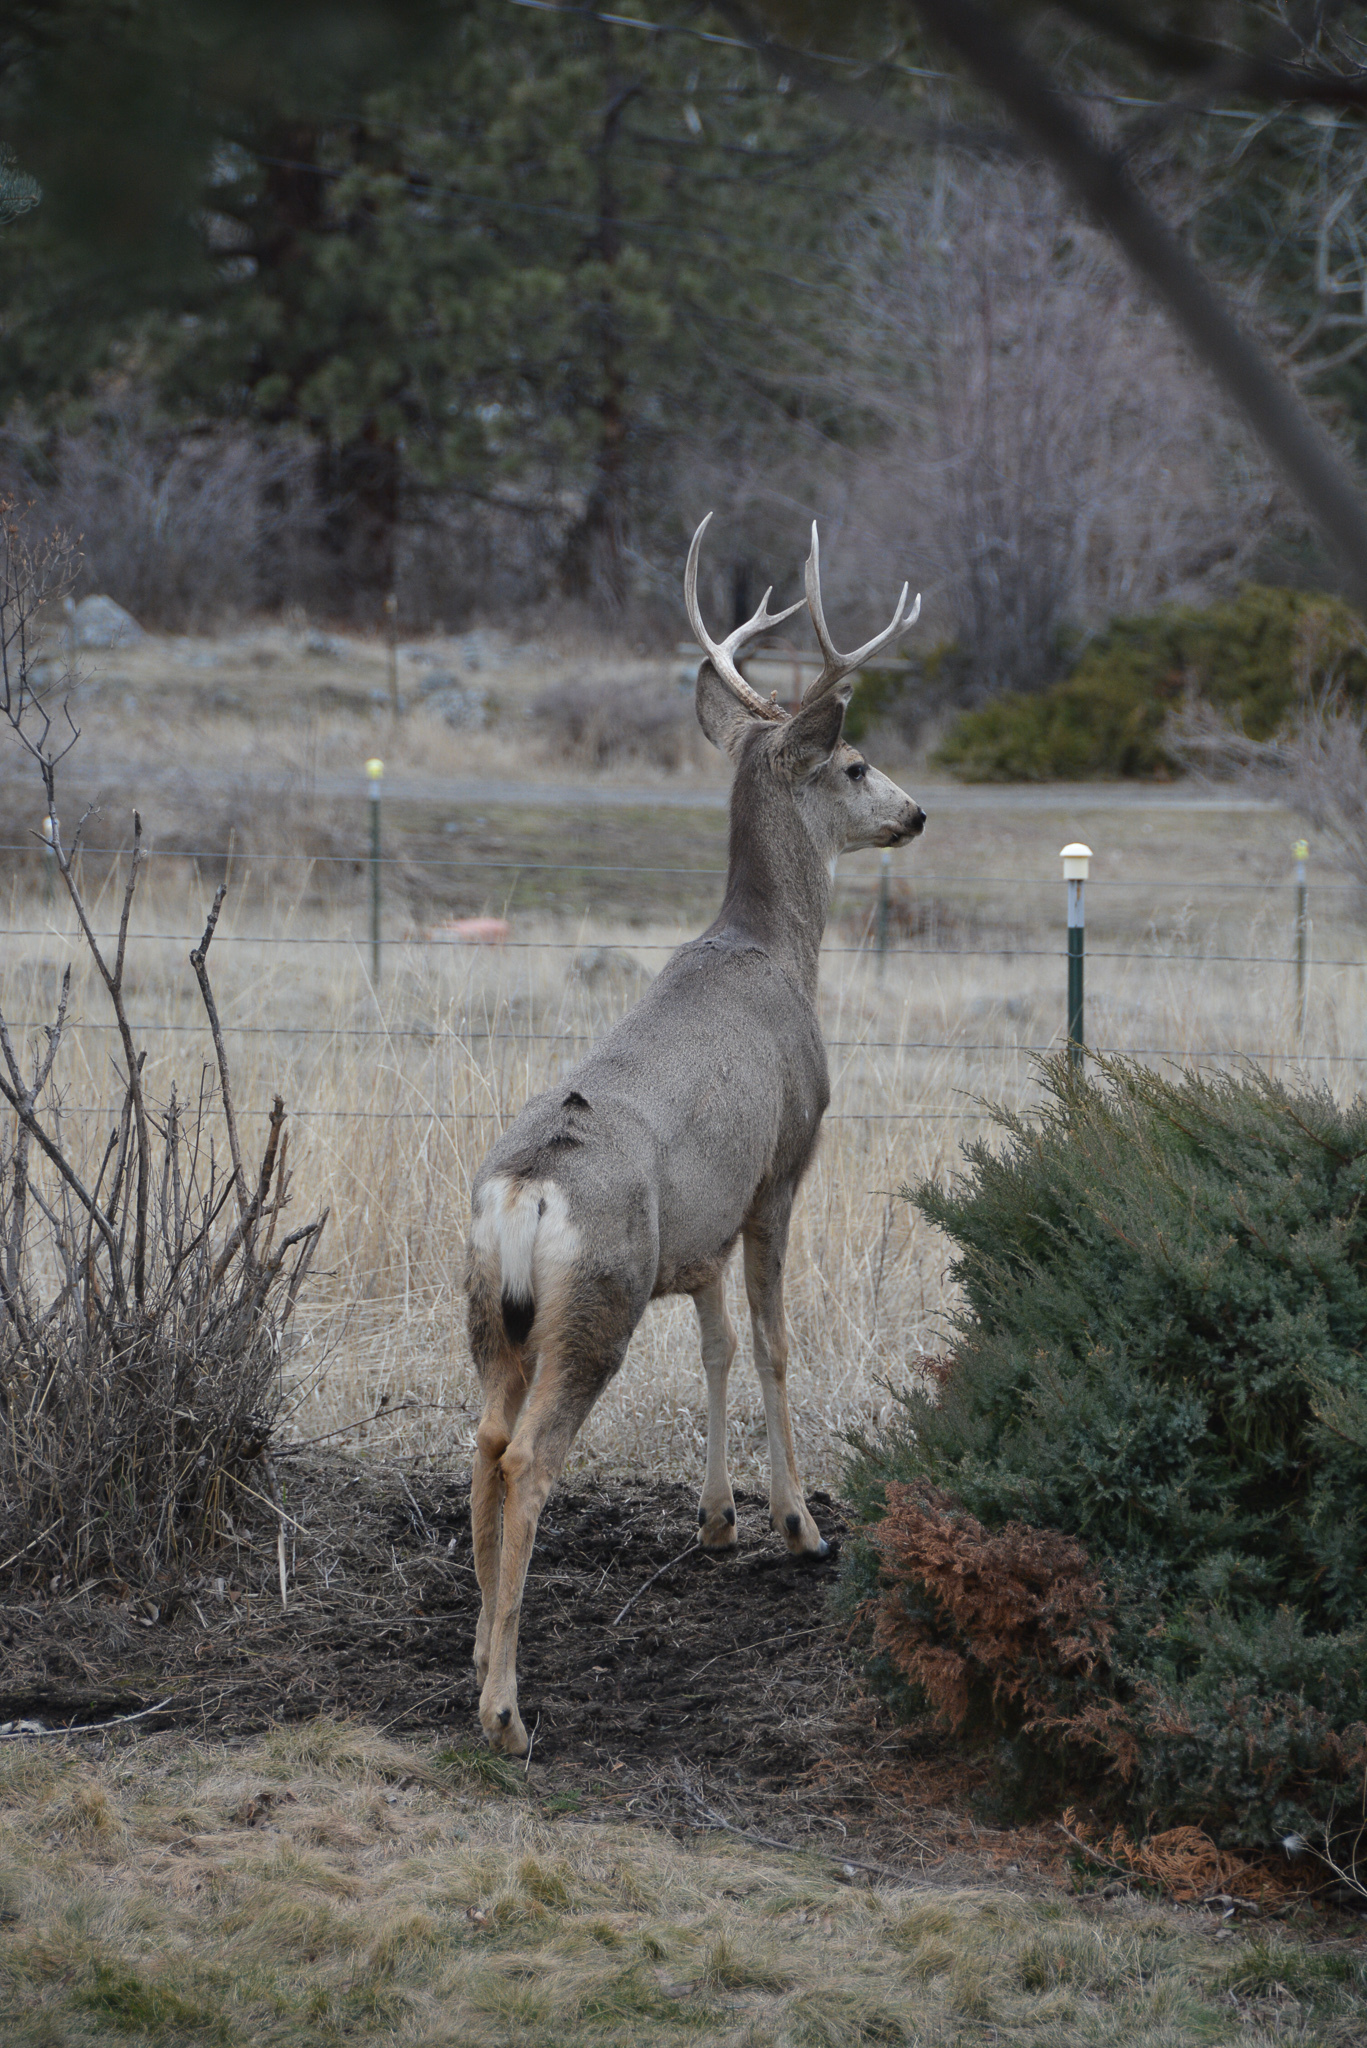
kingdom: Animalia
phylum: Chordata
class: Mammalia
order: Artiodactyla
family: Cervidae
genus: Odocoileus
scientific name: Odocoileus hemionus
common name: Mule deer
